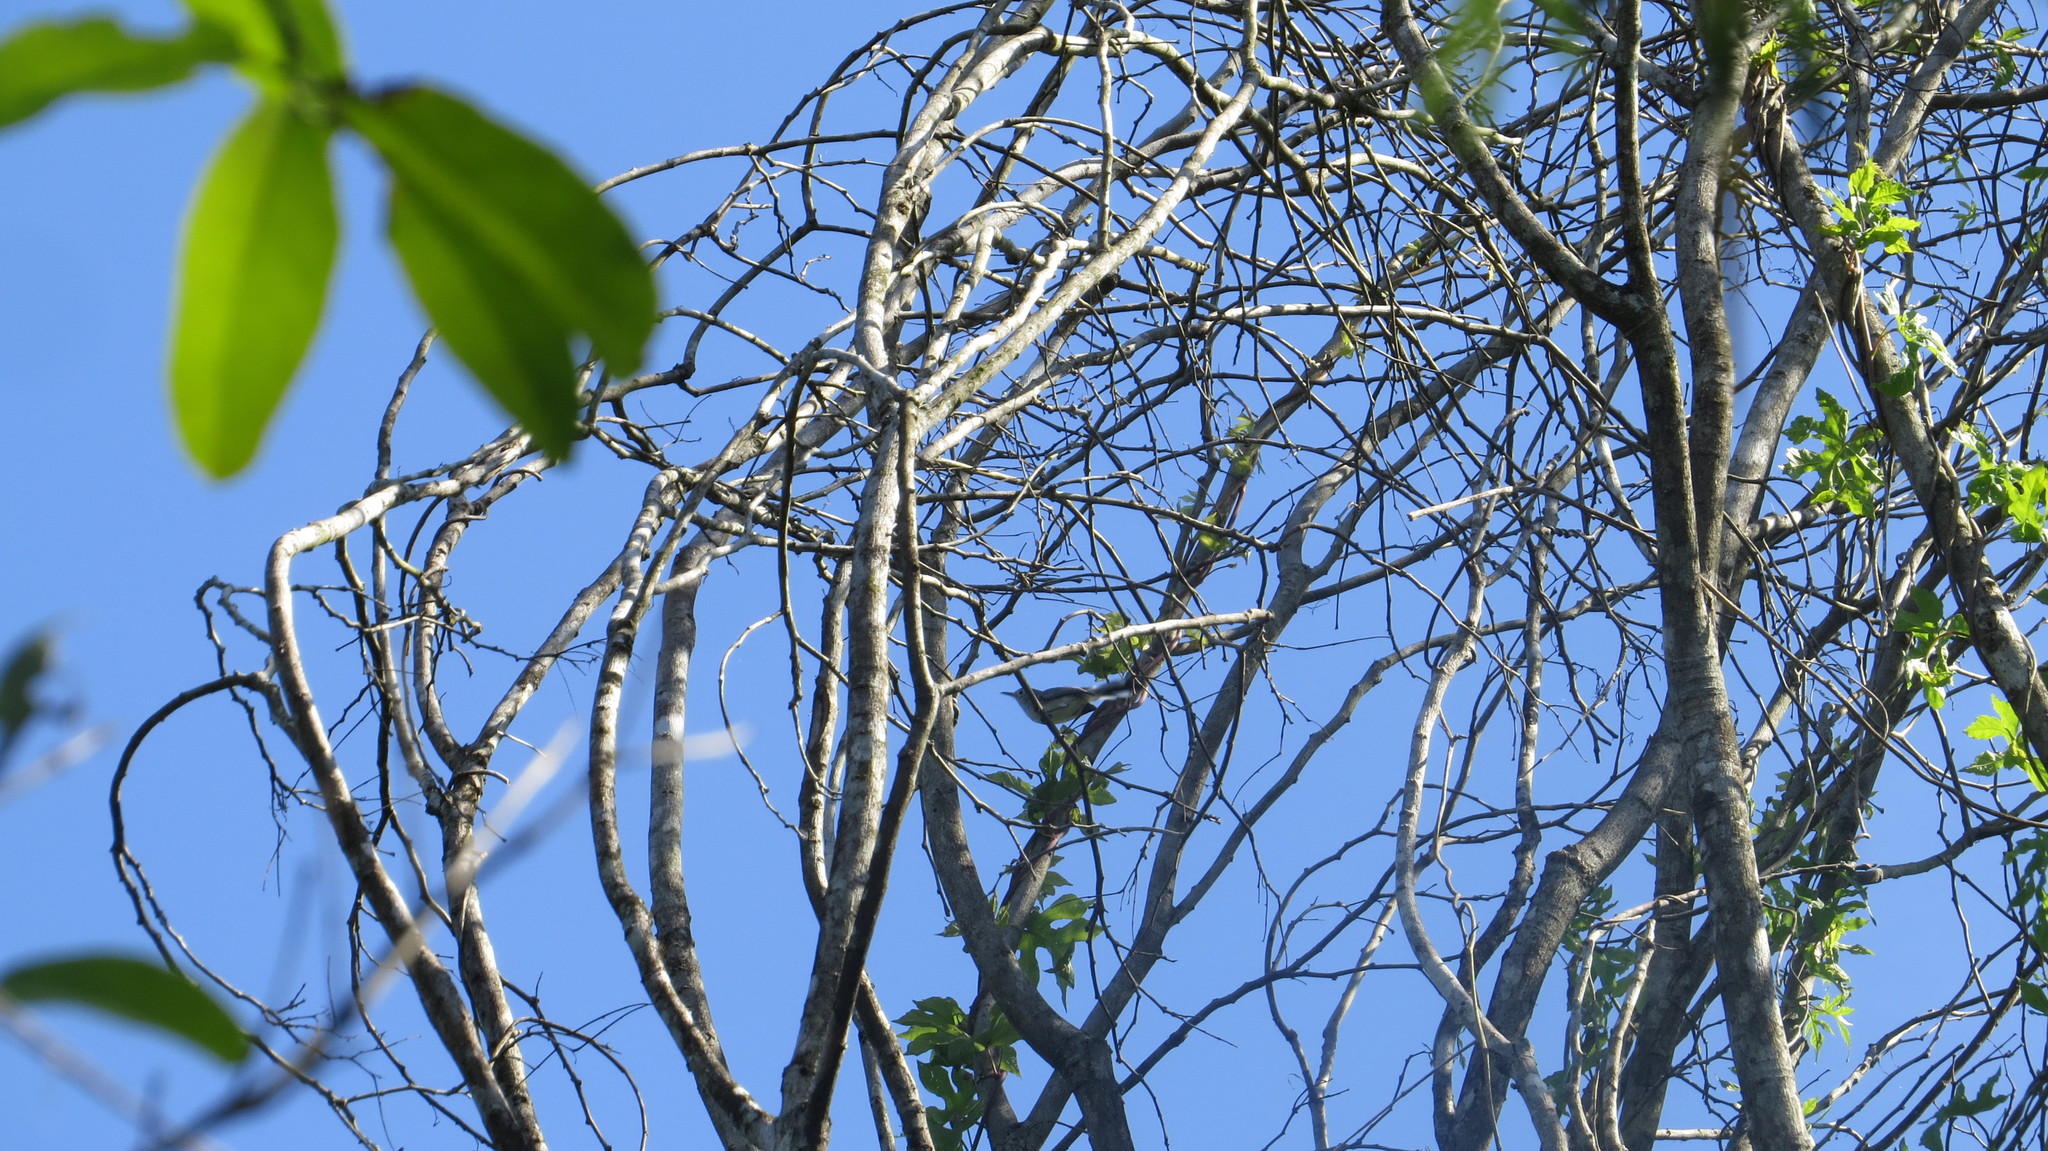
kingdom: Animalia
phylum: Chordata
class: Aves
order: Passeriformes
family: Polioptilidae
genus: Polioptila
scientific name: Polioptila caerulea
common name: Blue-gray gnatcatcher
